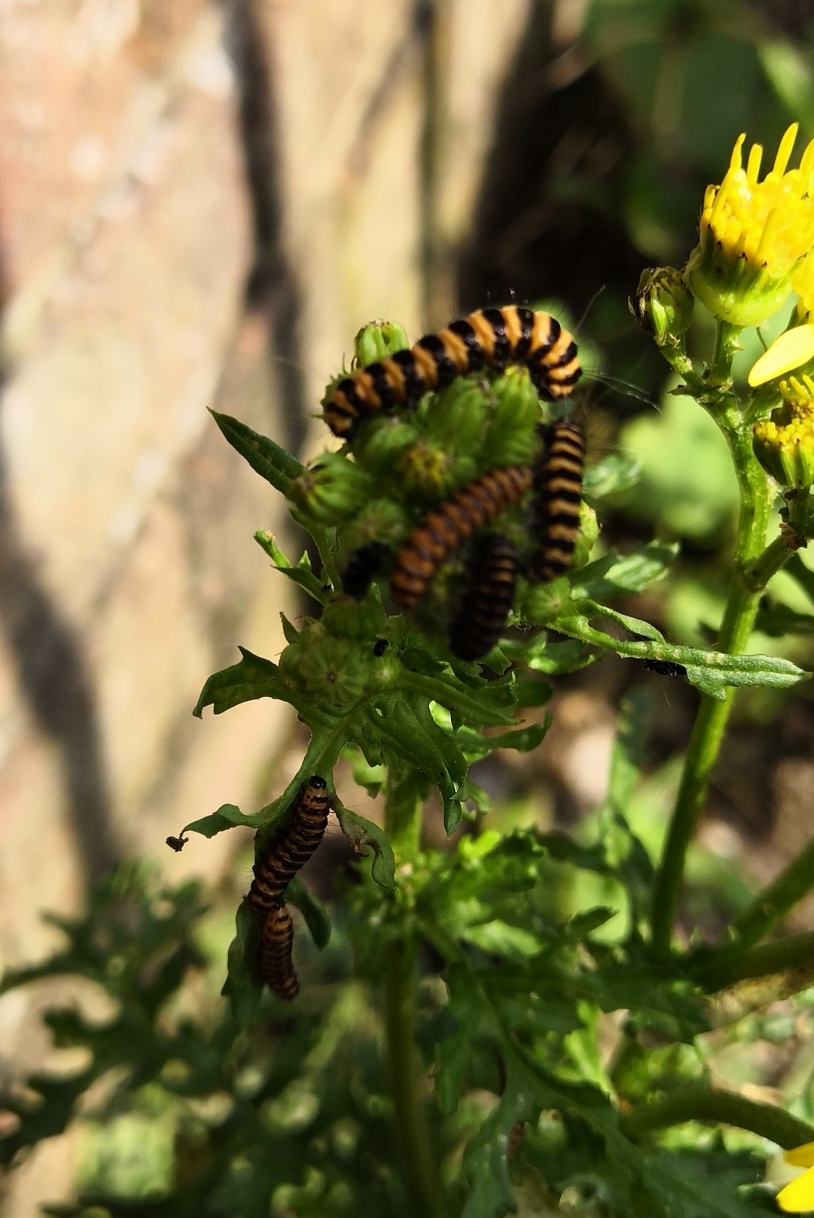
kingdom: Animalia
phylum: Arthropoda
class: Insecta
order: Lepidoptera
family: Erebidae
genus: Tyria
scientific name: Tyria jacobaeae
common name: Cinnabar
